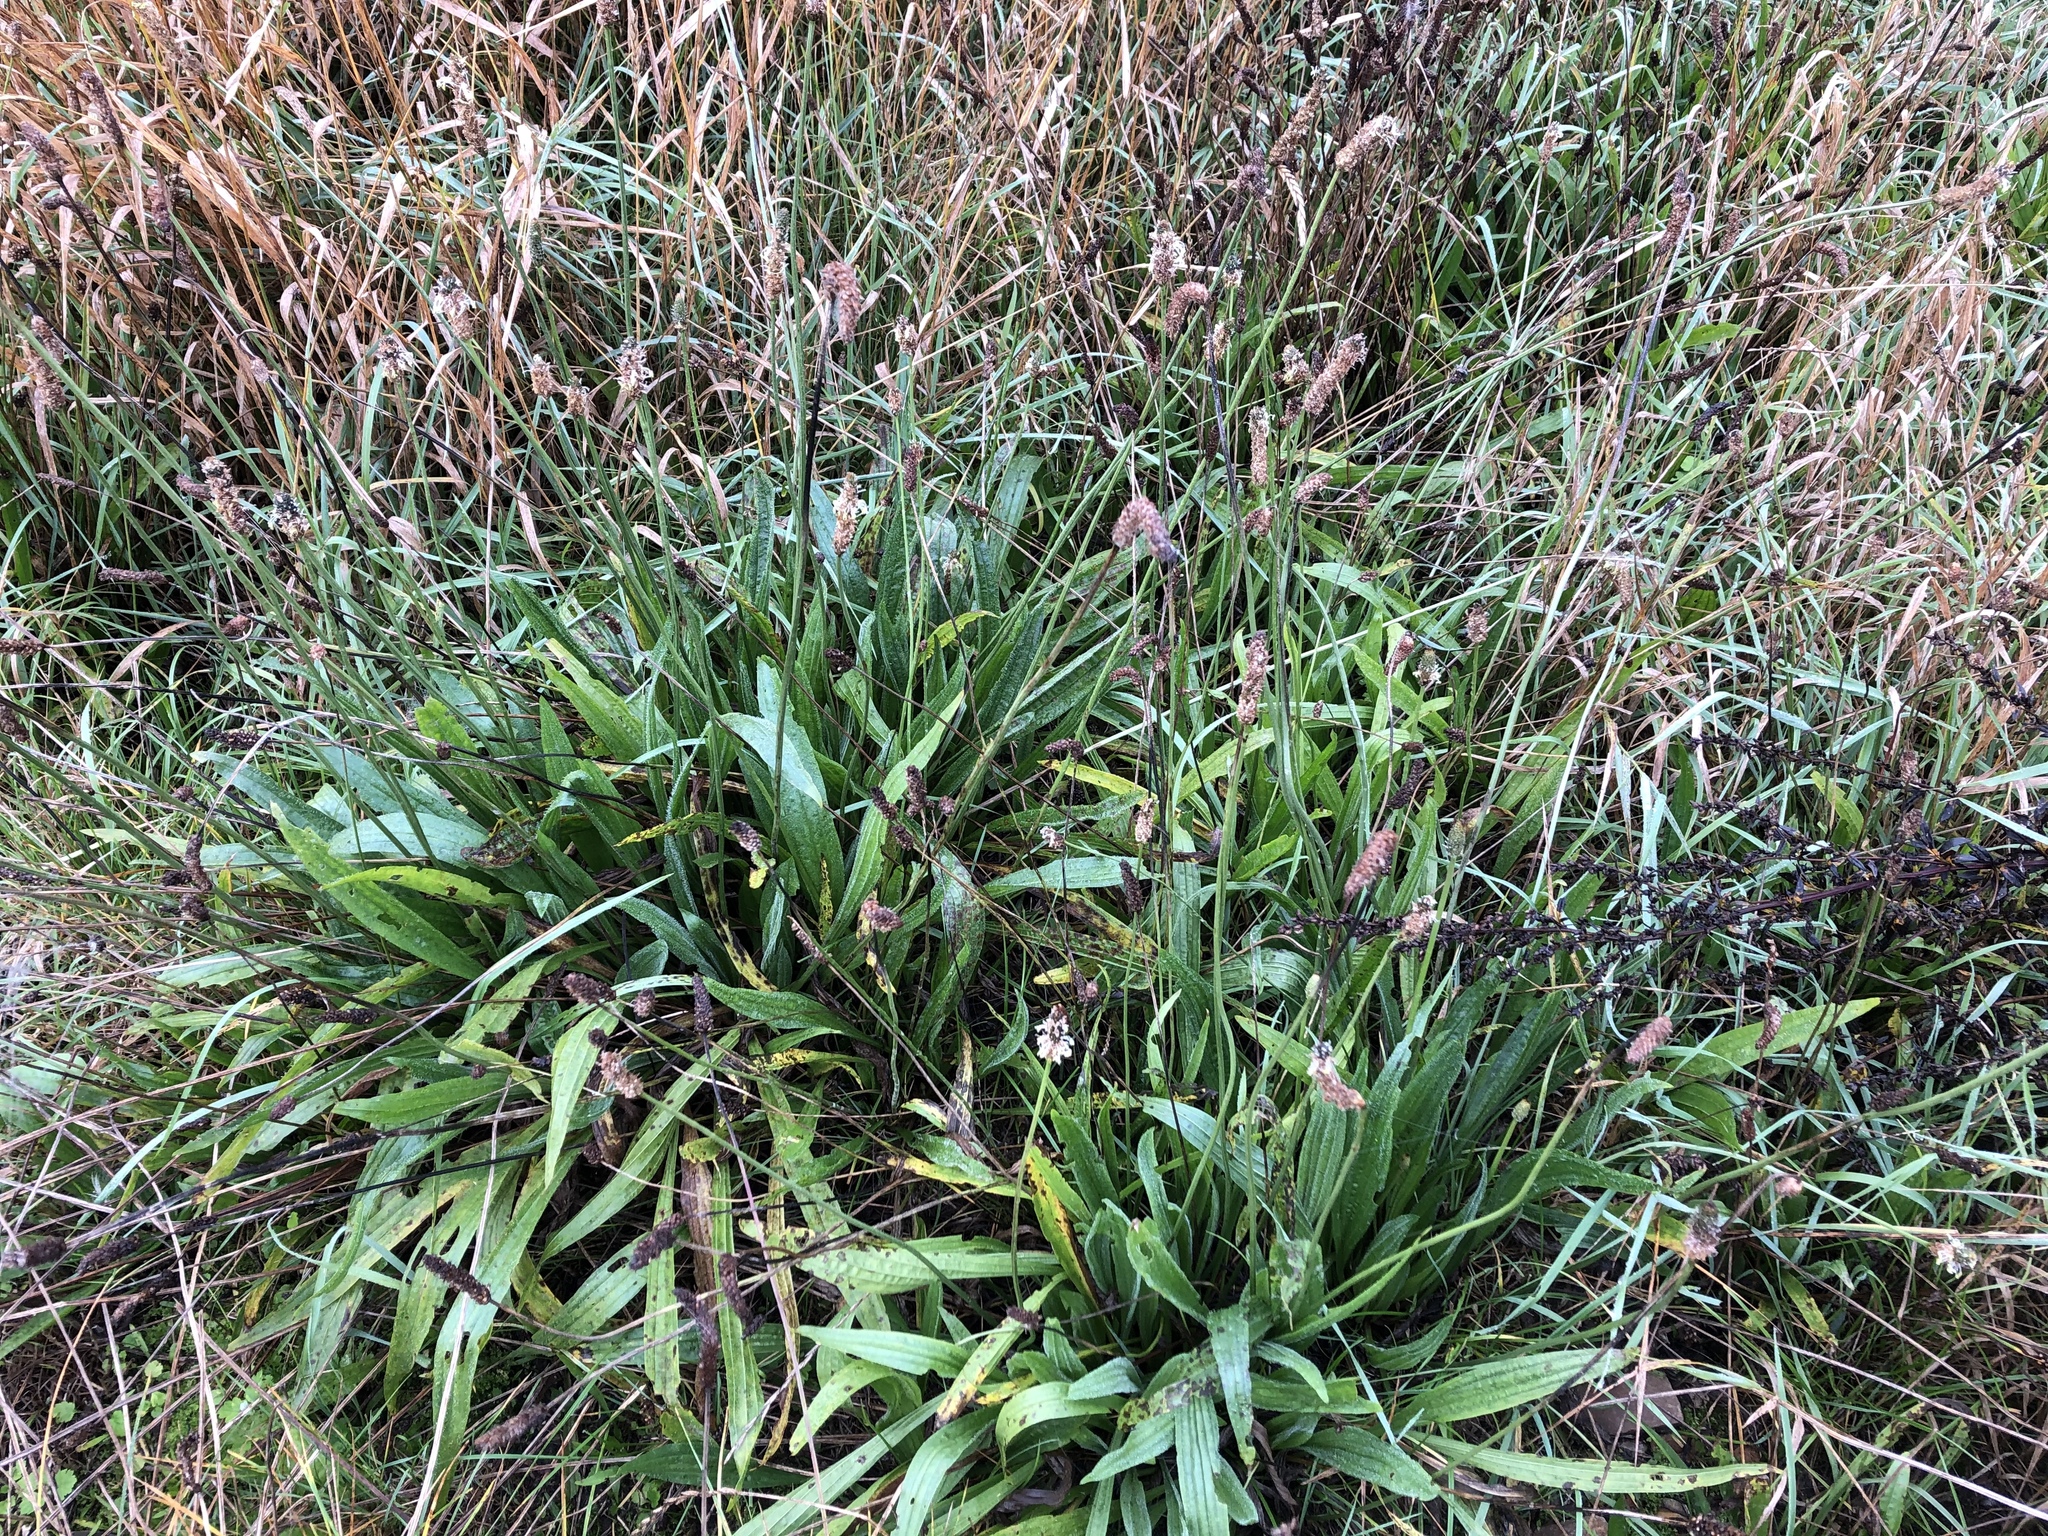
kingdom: Plantae
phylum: Tracheophyta
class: Magnoliopsida
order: Lamiales
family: Plantaginaceae
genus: Plantago
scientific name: Plantago lanceolata
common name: Ribwort plantain
